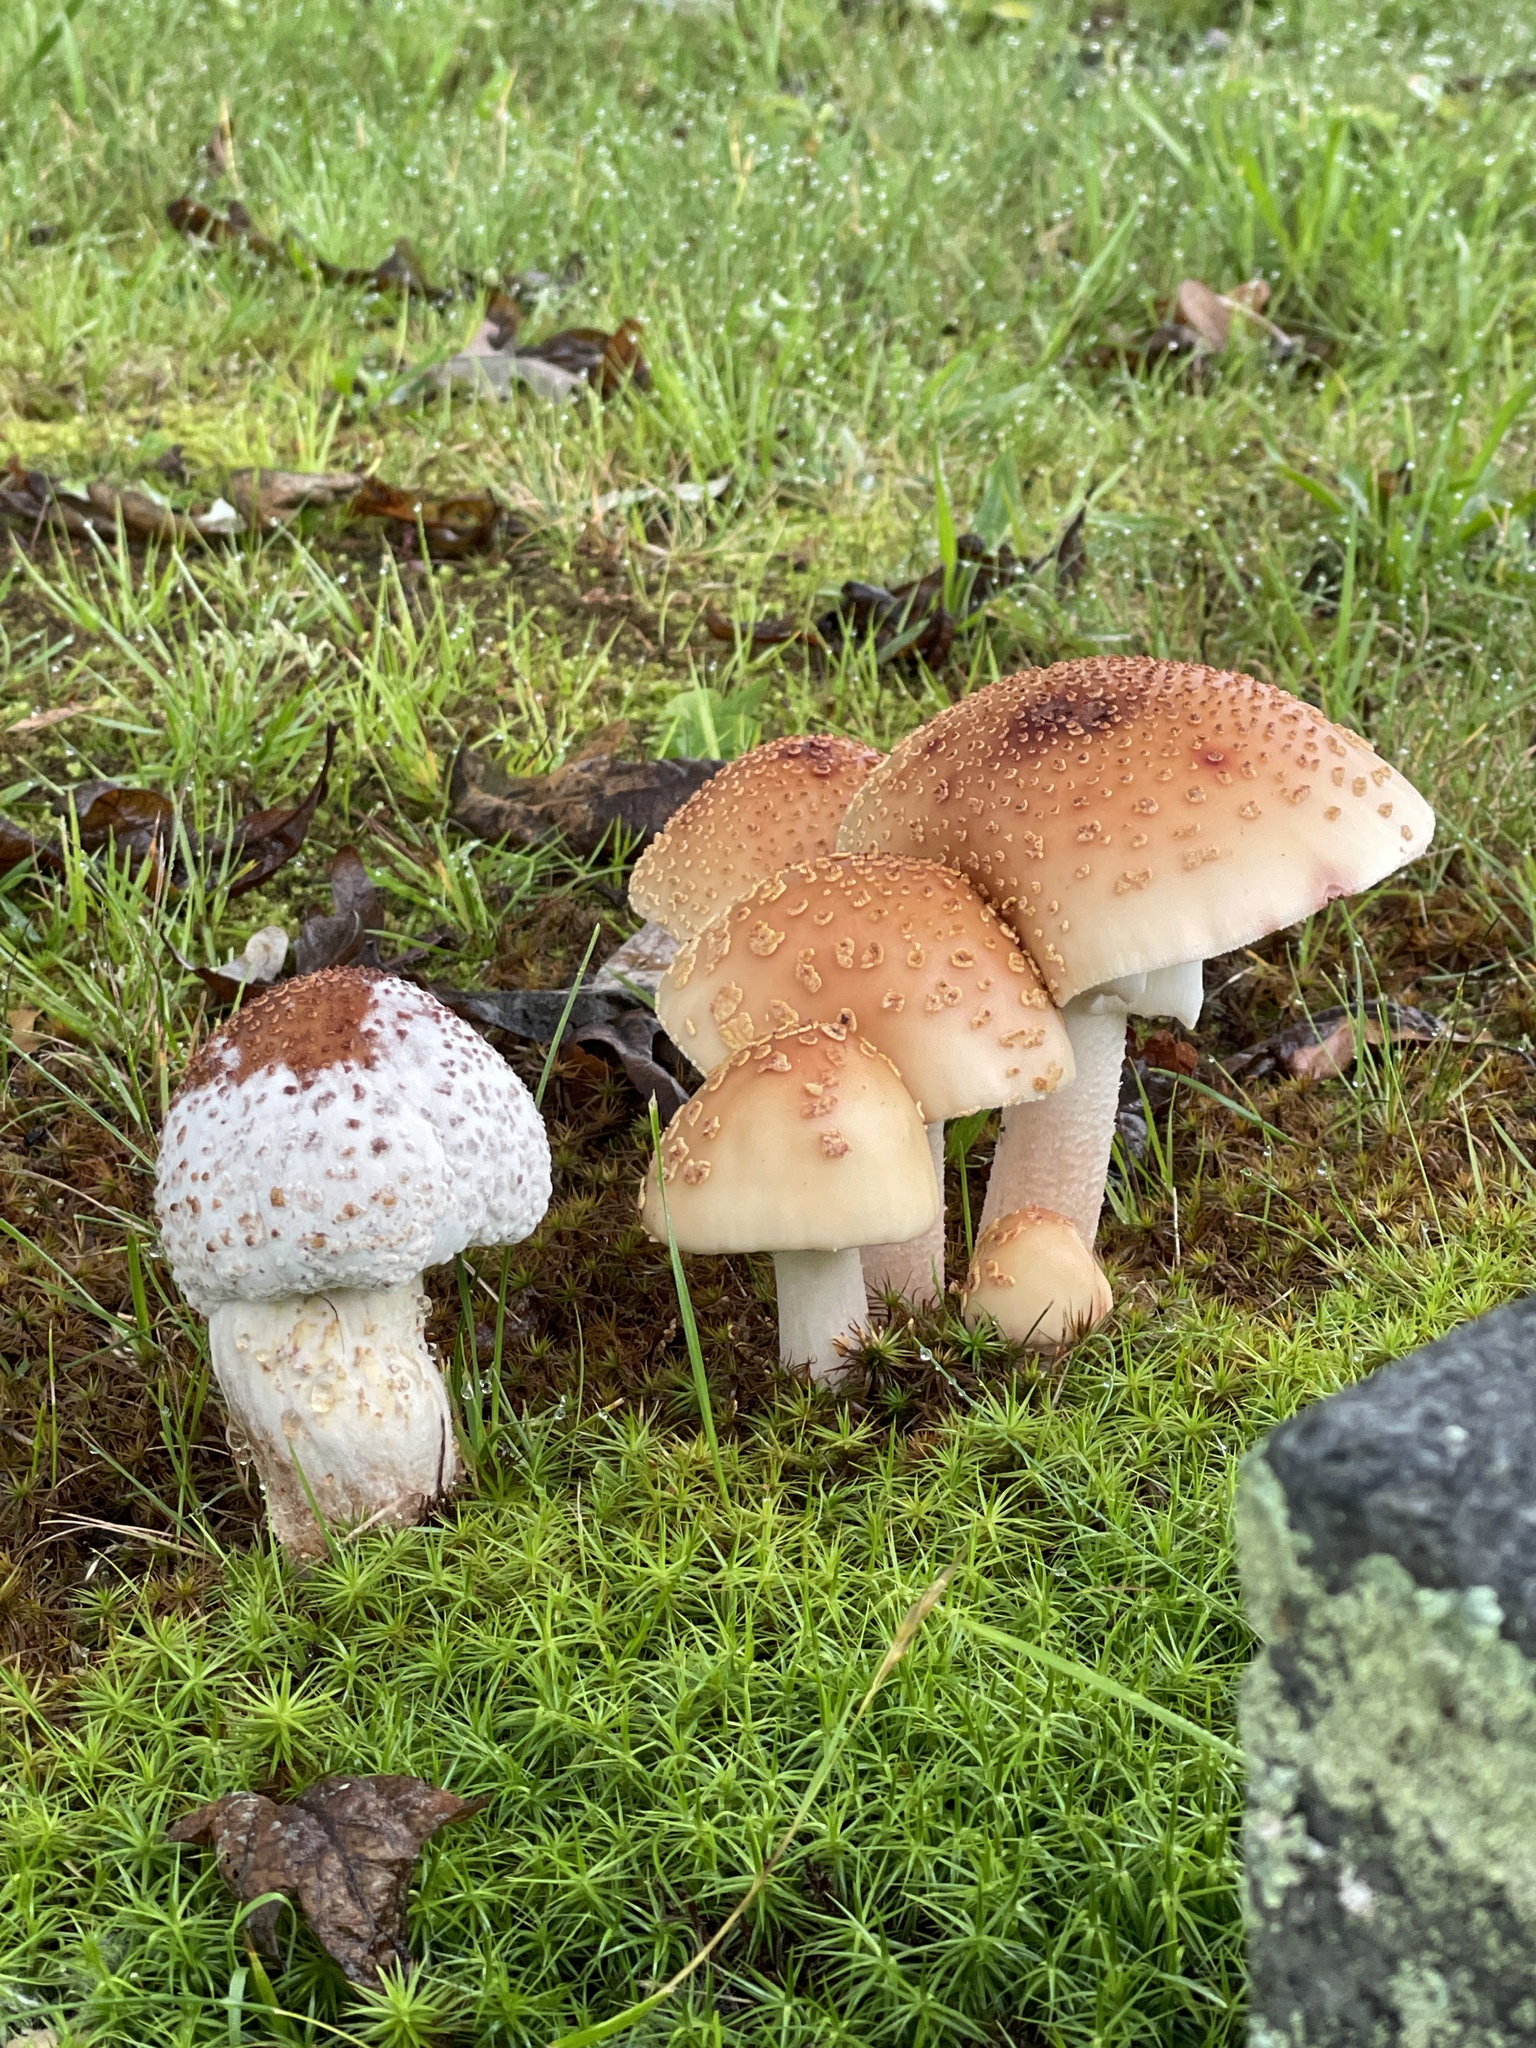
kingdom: Fungi
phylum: Basidiomycota
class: Agaricomycetes
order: Agaricales
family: Amanitaceae
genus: Amanita
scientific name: Amanita rubescens
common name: Blusher
